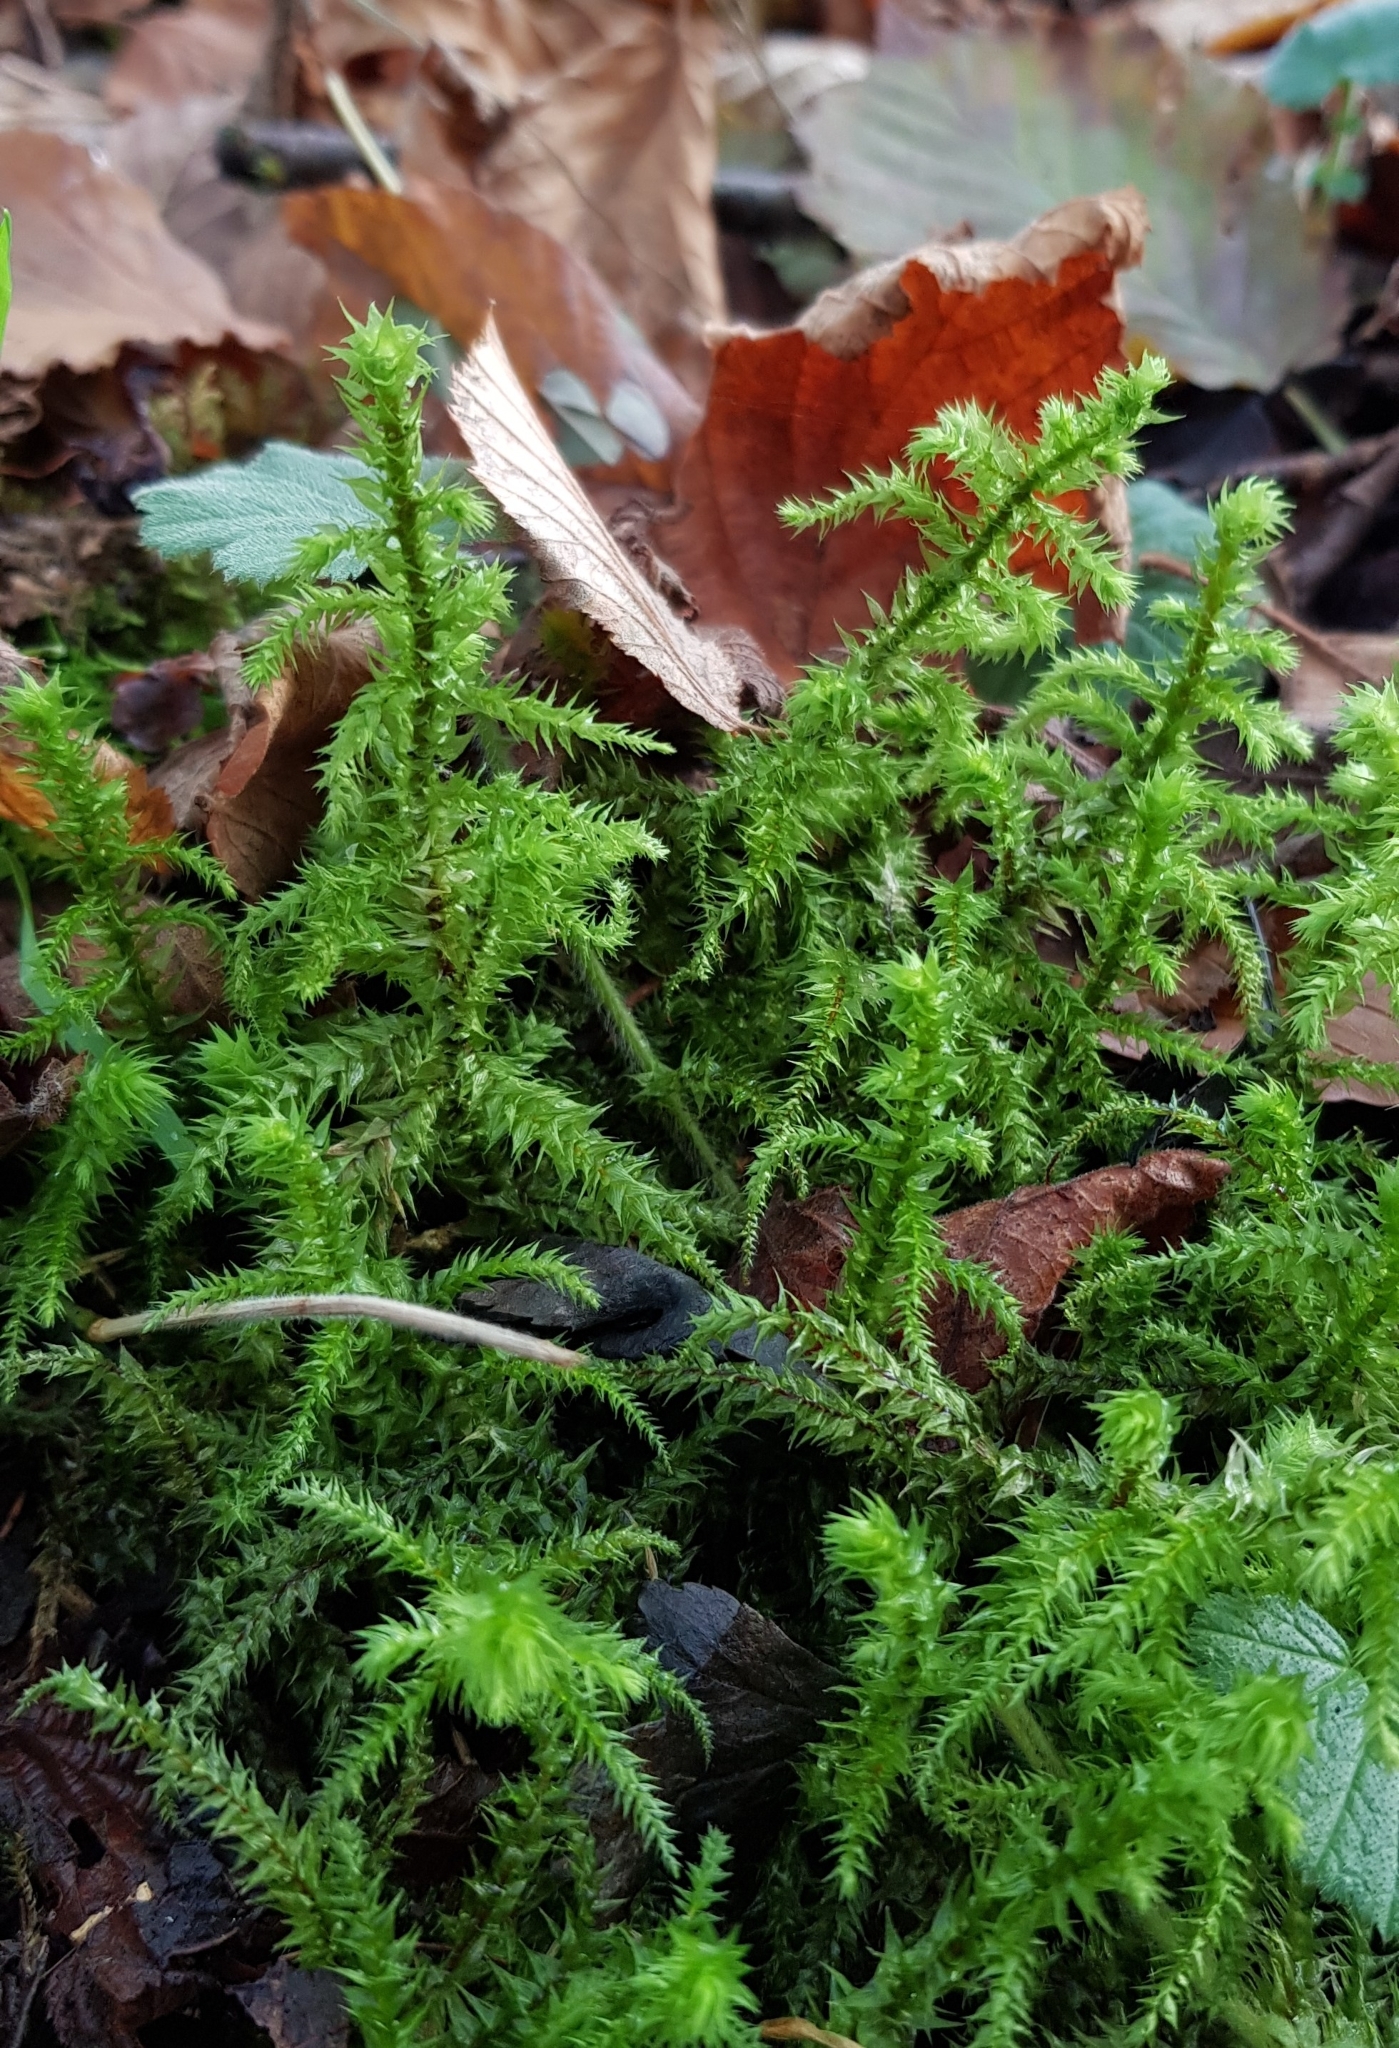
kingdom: Plantae
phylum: Bryophyta
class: Bryopsida
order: Hypnales
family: Hylocomiaceae
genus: Hylocomiadelphus
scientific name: Hylocomiadelphus triquetrus
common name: Rough goose neck moss
